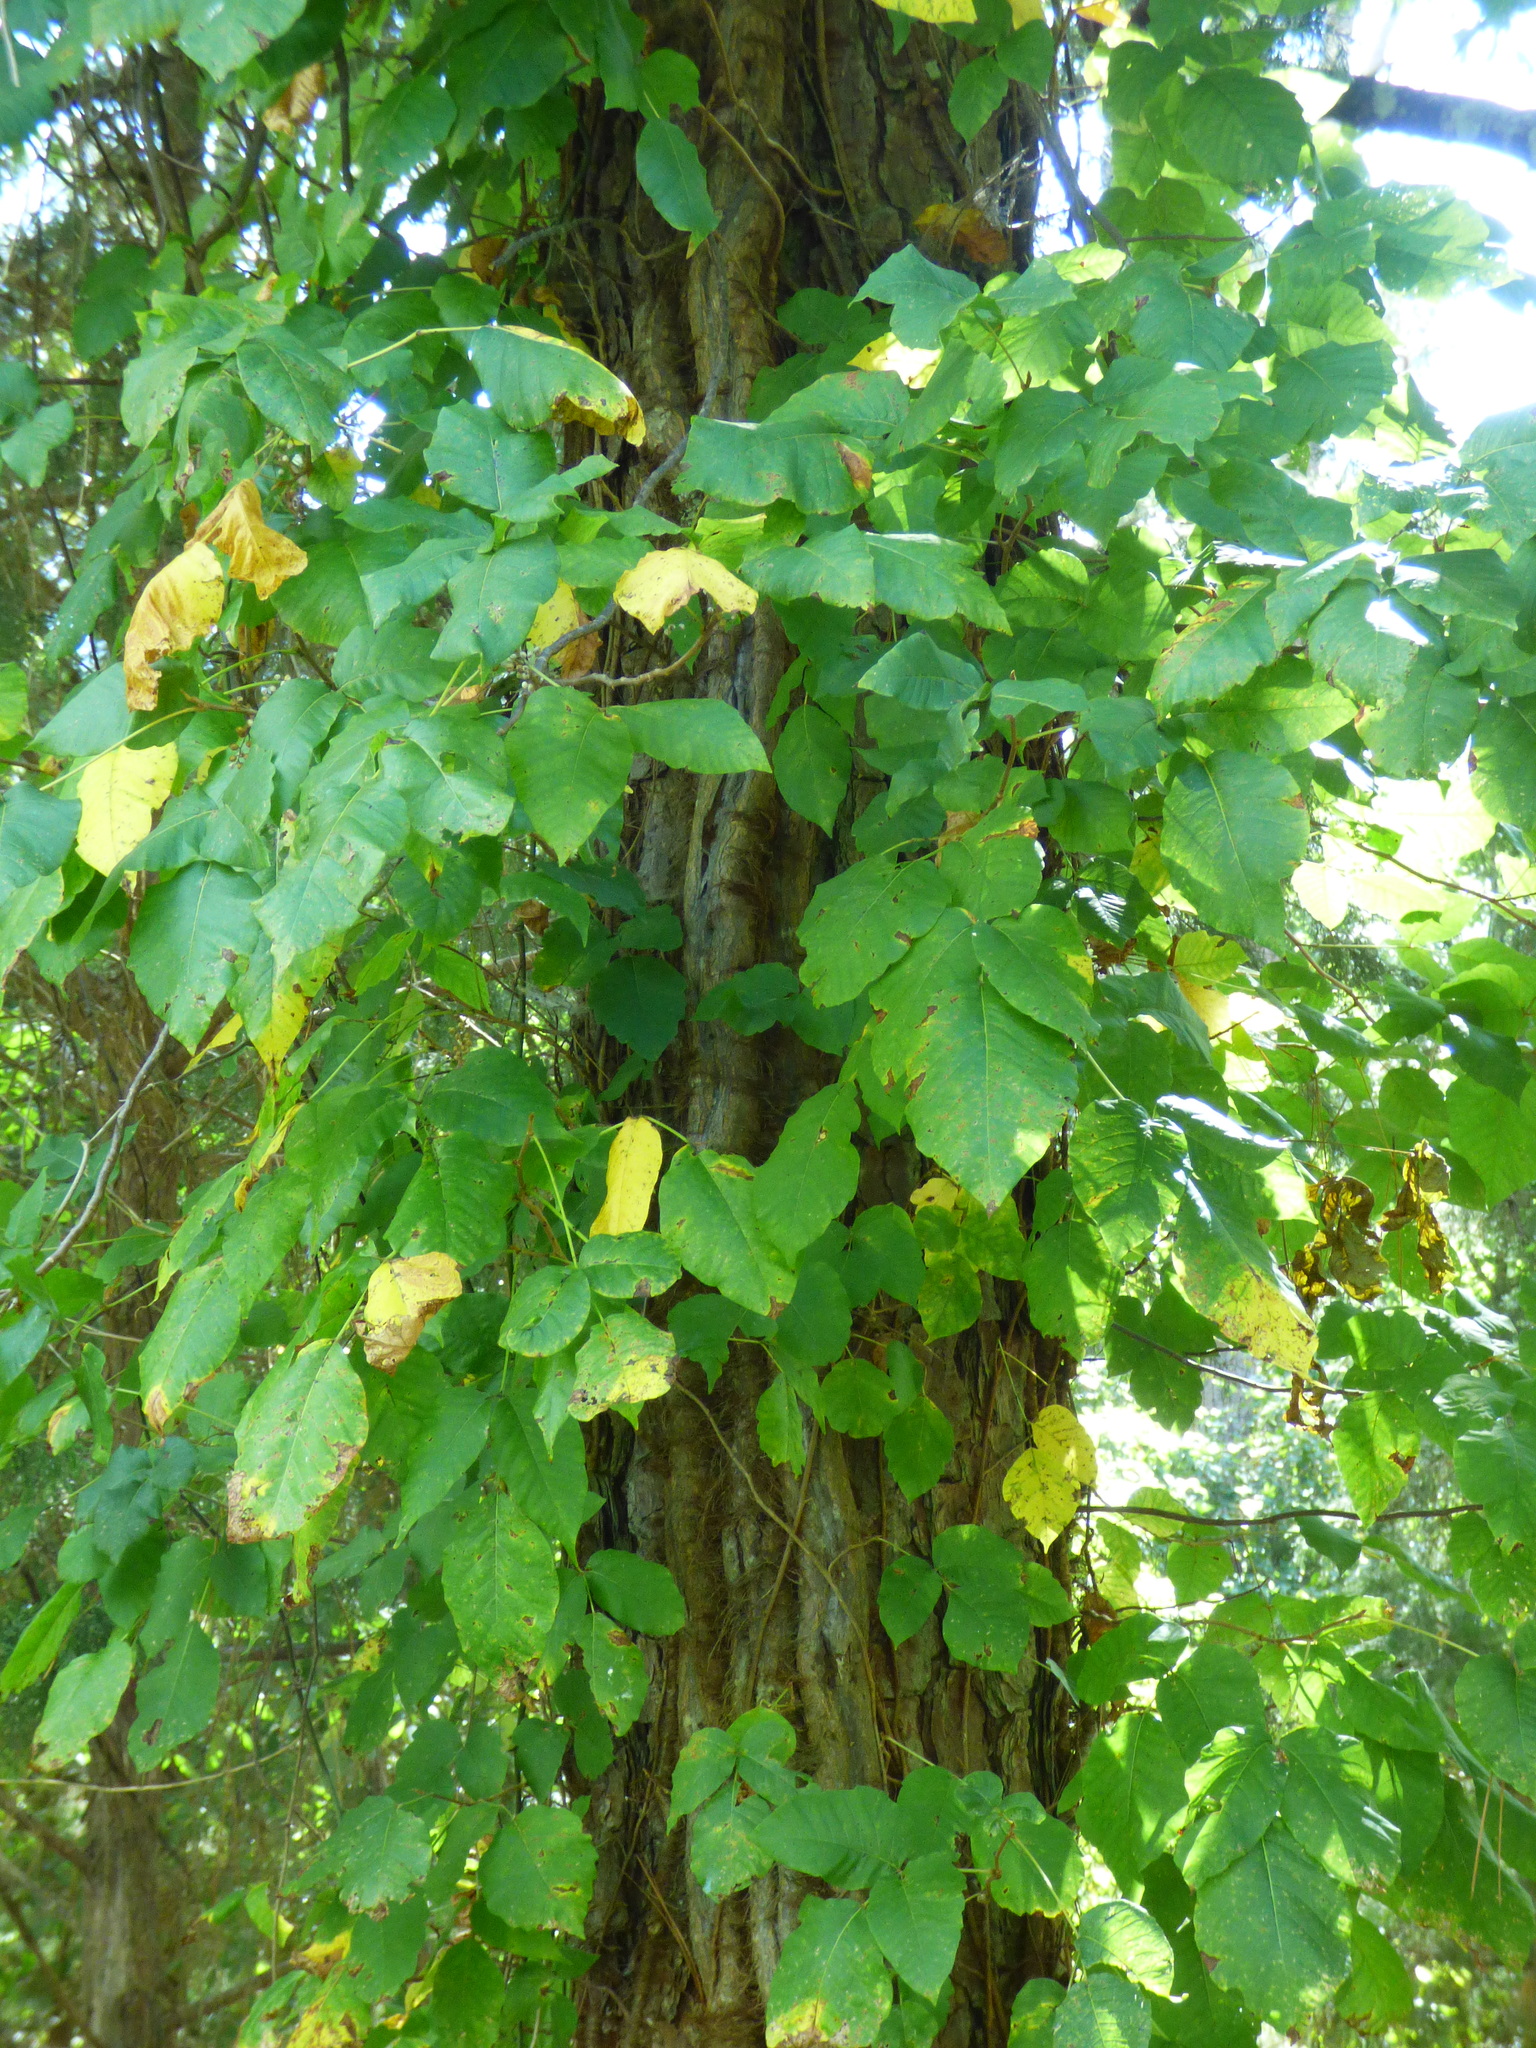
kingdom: Plantae
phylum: Tracheophyta
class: Magnoliopsida
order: Sapindales
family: Anacardiaceae
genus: Toxicodendron
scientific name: Toxicodendron radicans
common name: Poison ivy
